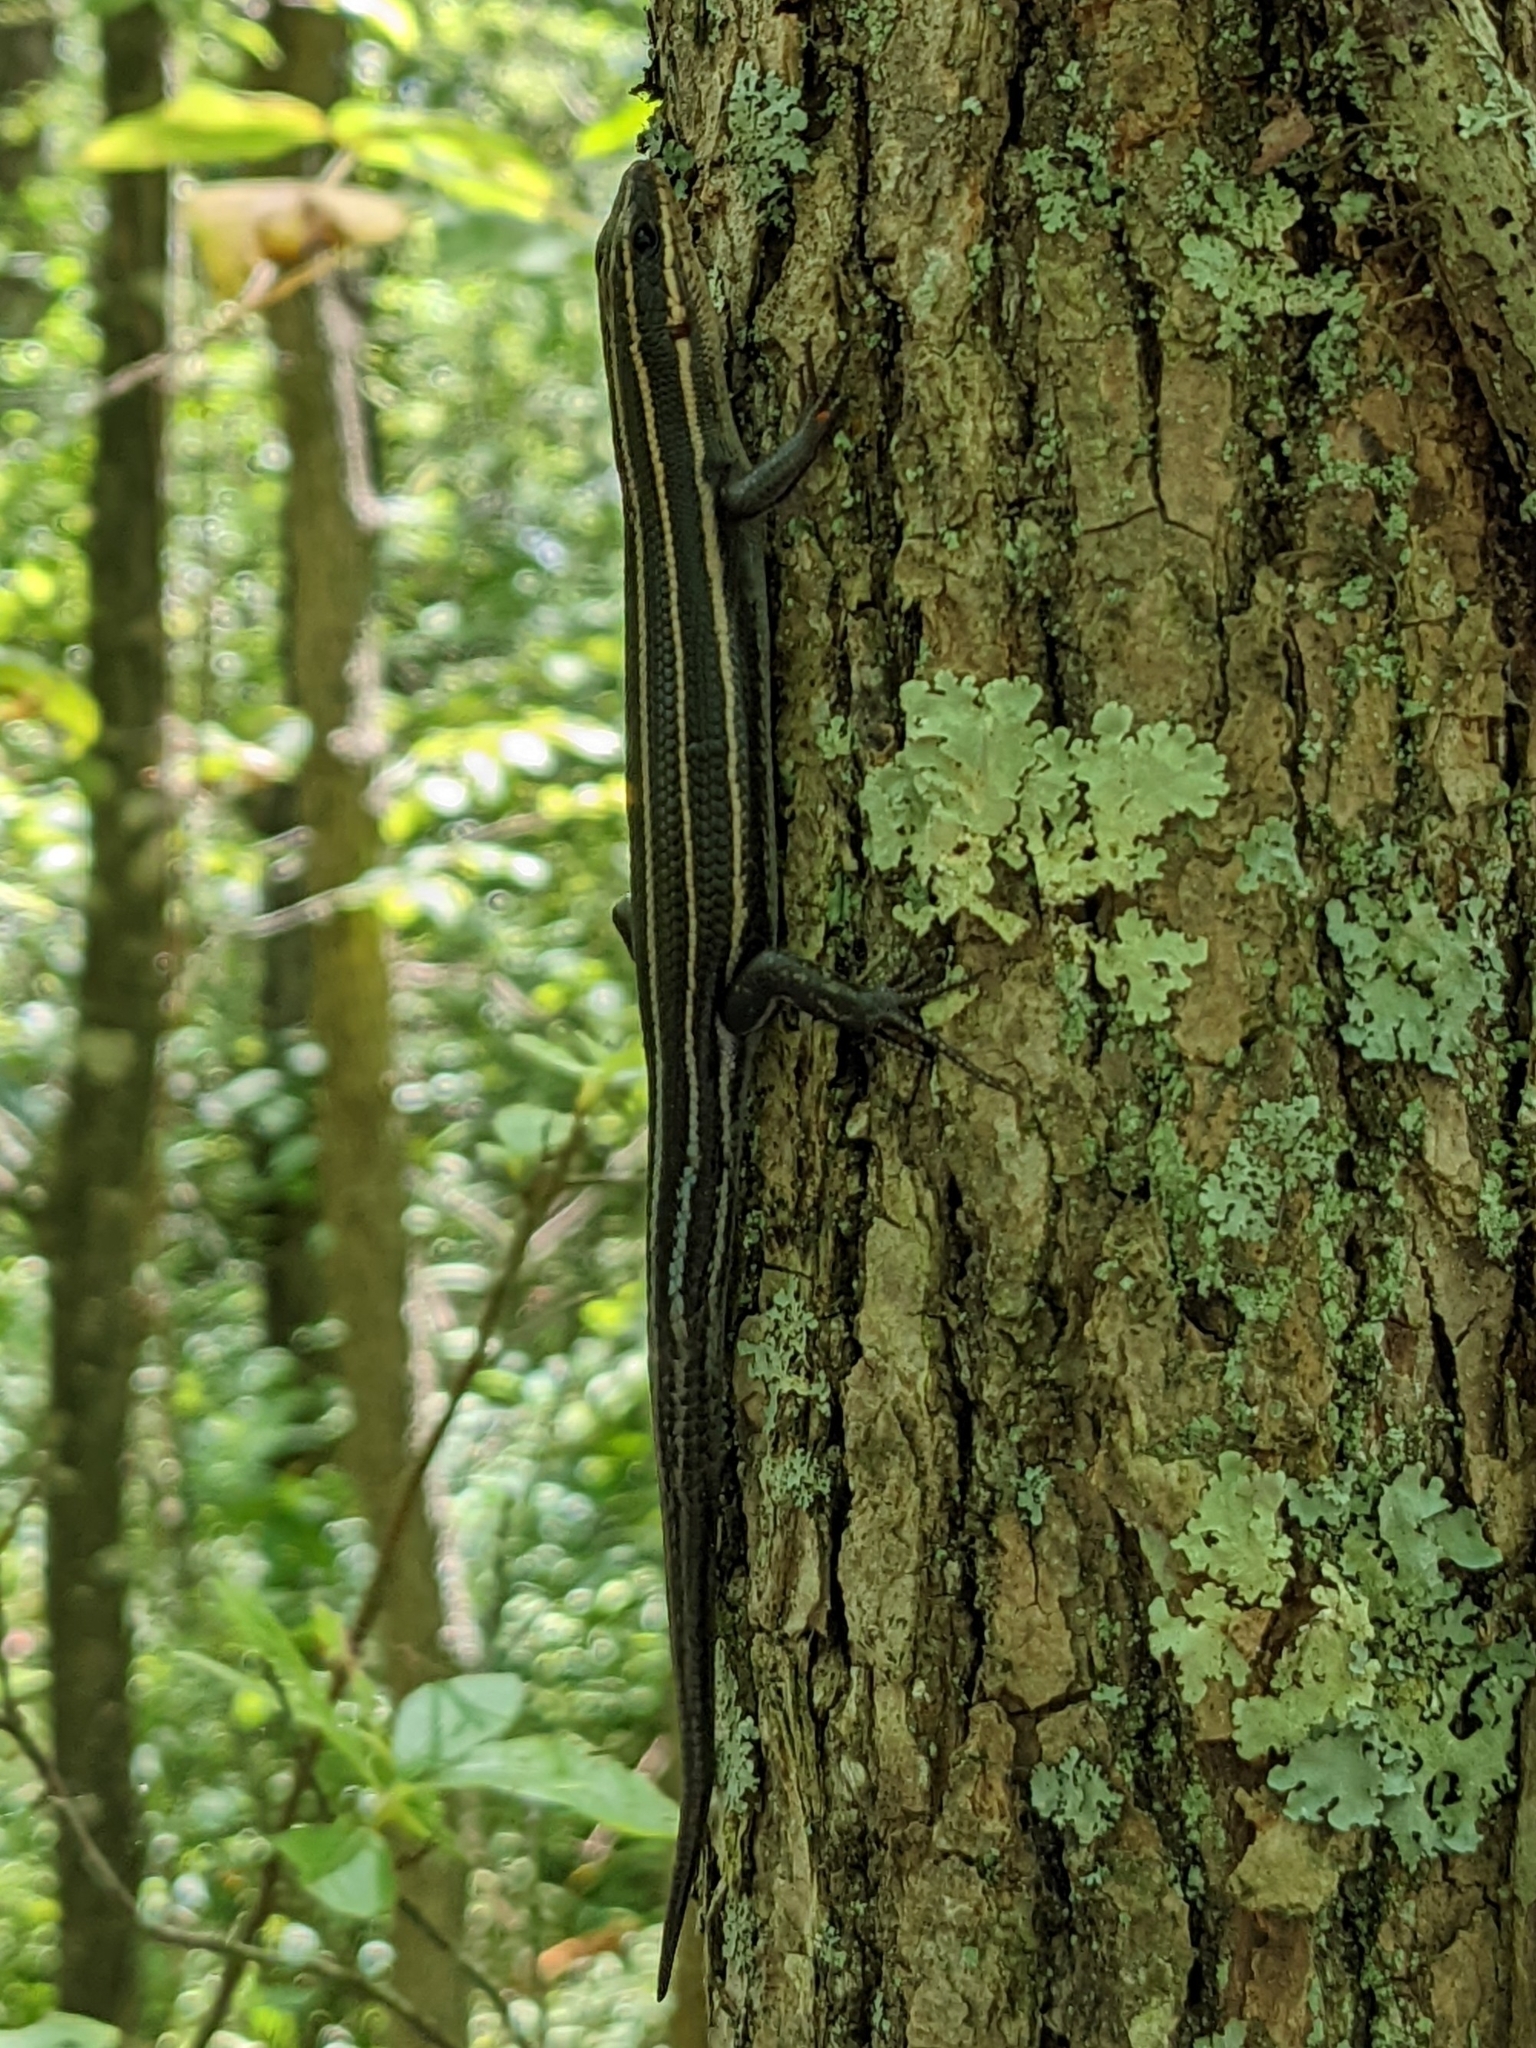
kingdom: Animalia
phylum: Chordata
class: Squamata
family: Scincidae
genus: Plestiodon
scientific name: Plestiodon fasciatus
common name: Five-lined skink
